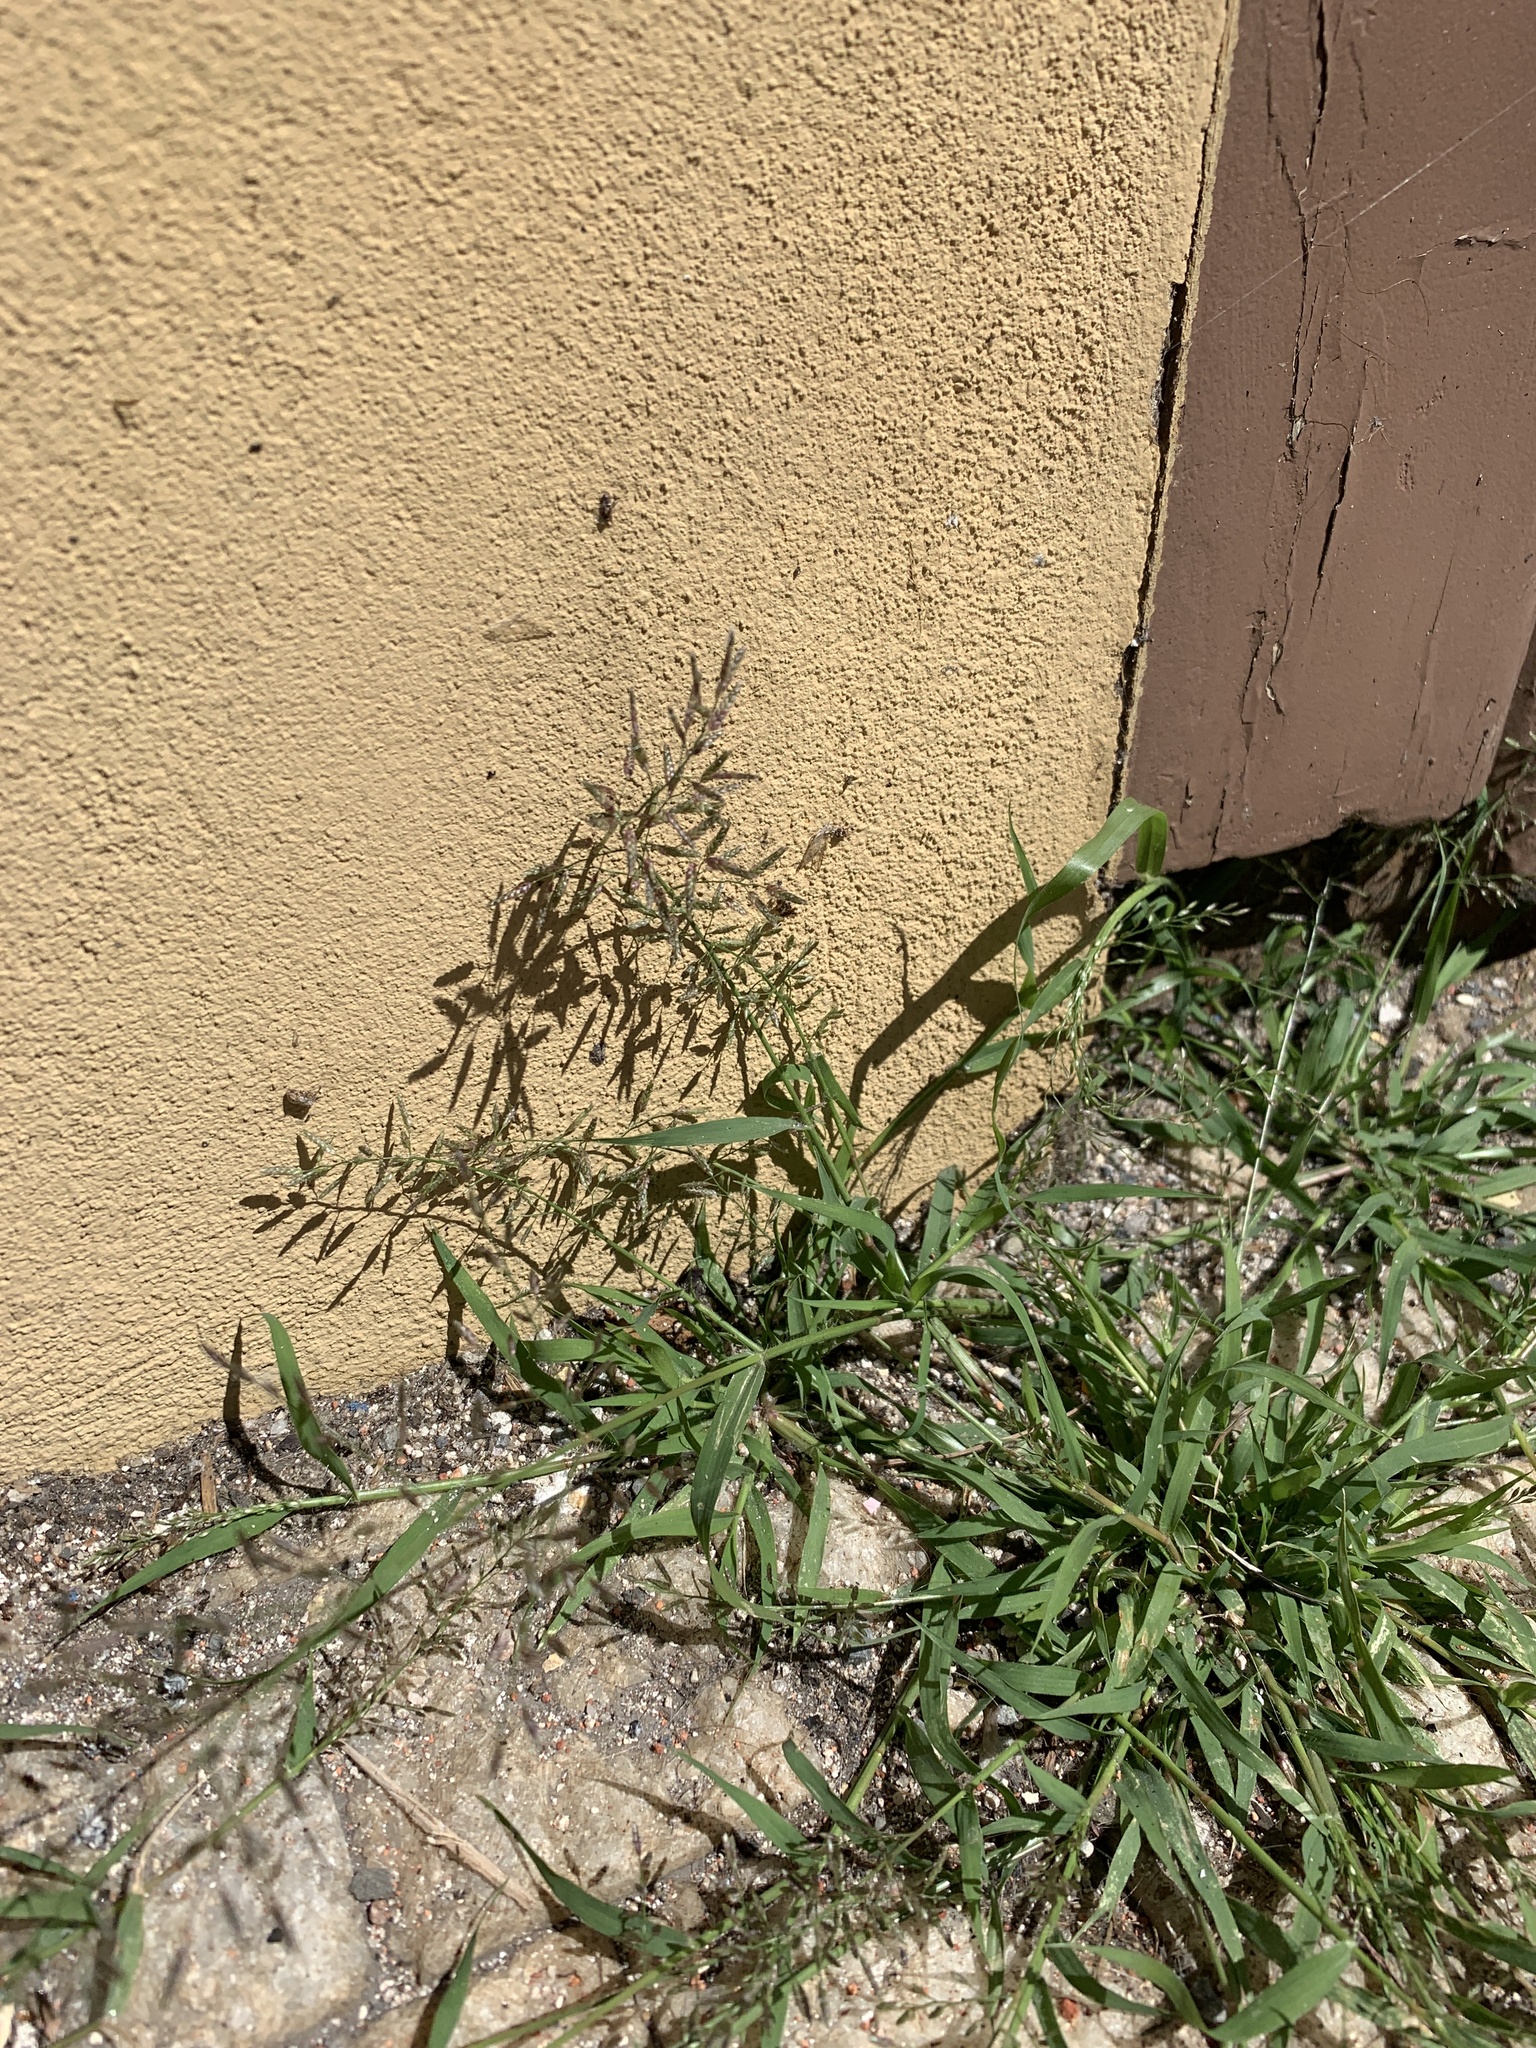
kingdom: Plantae
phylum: Tracheophyta
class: Liliopsida
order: Poales
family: Poaceae
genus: Eragrostis
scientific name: Eragrostis minor
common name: Small love-grass
